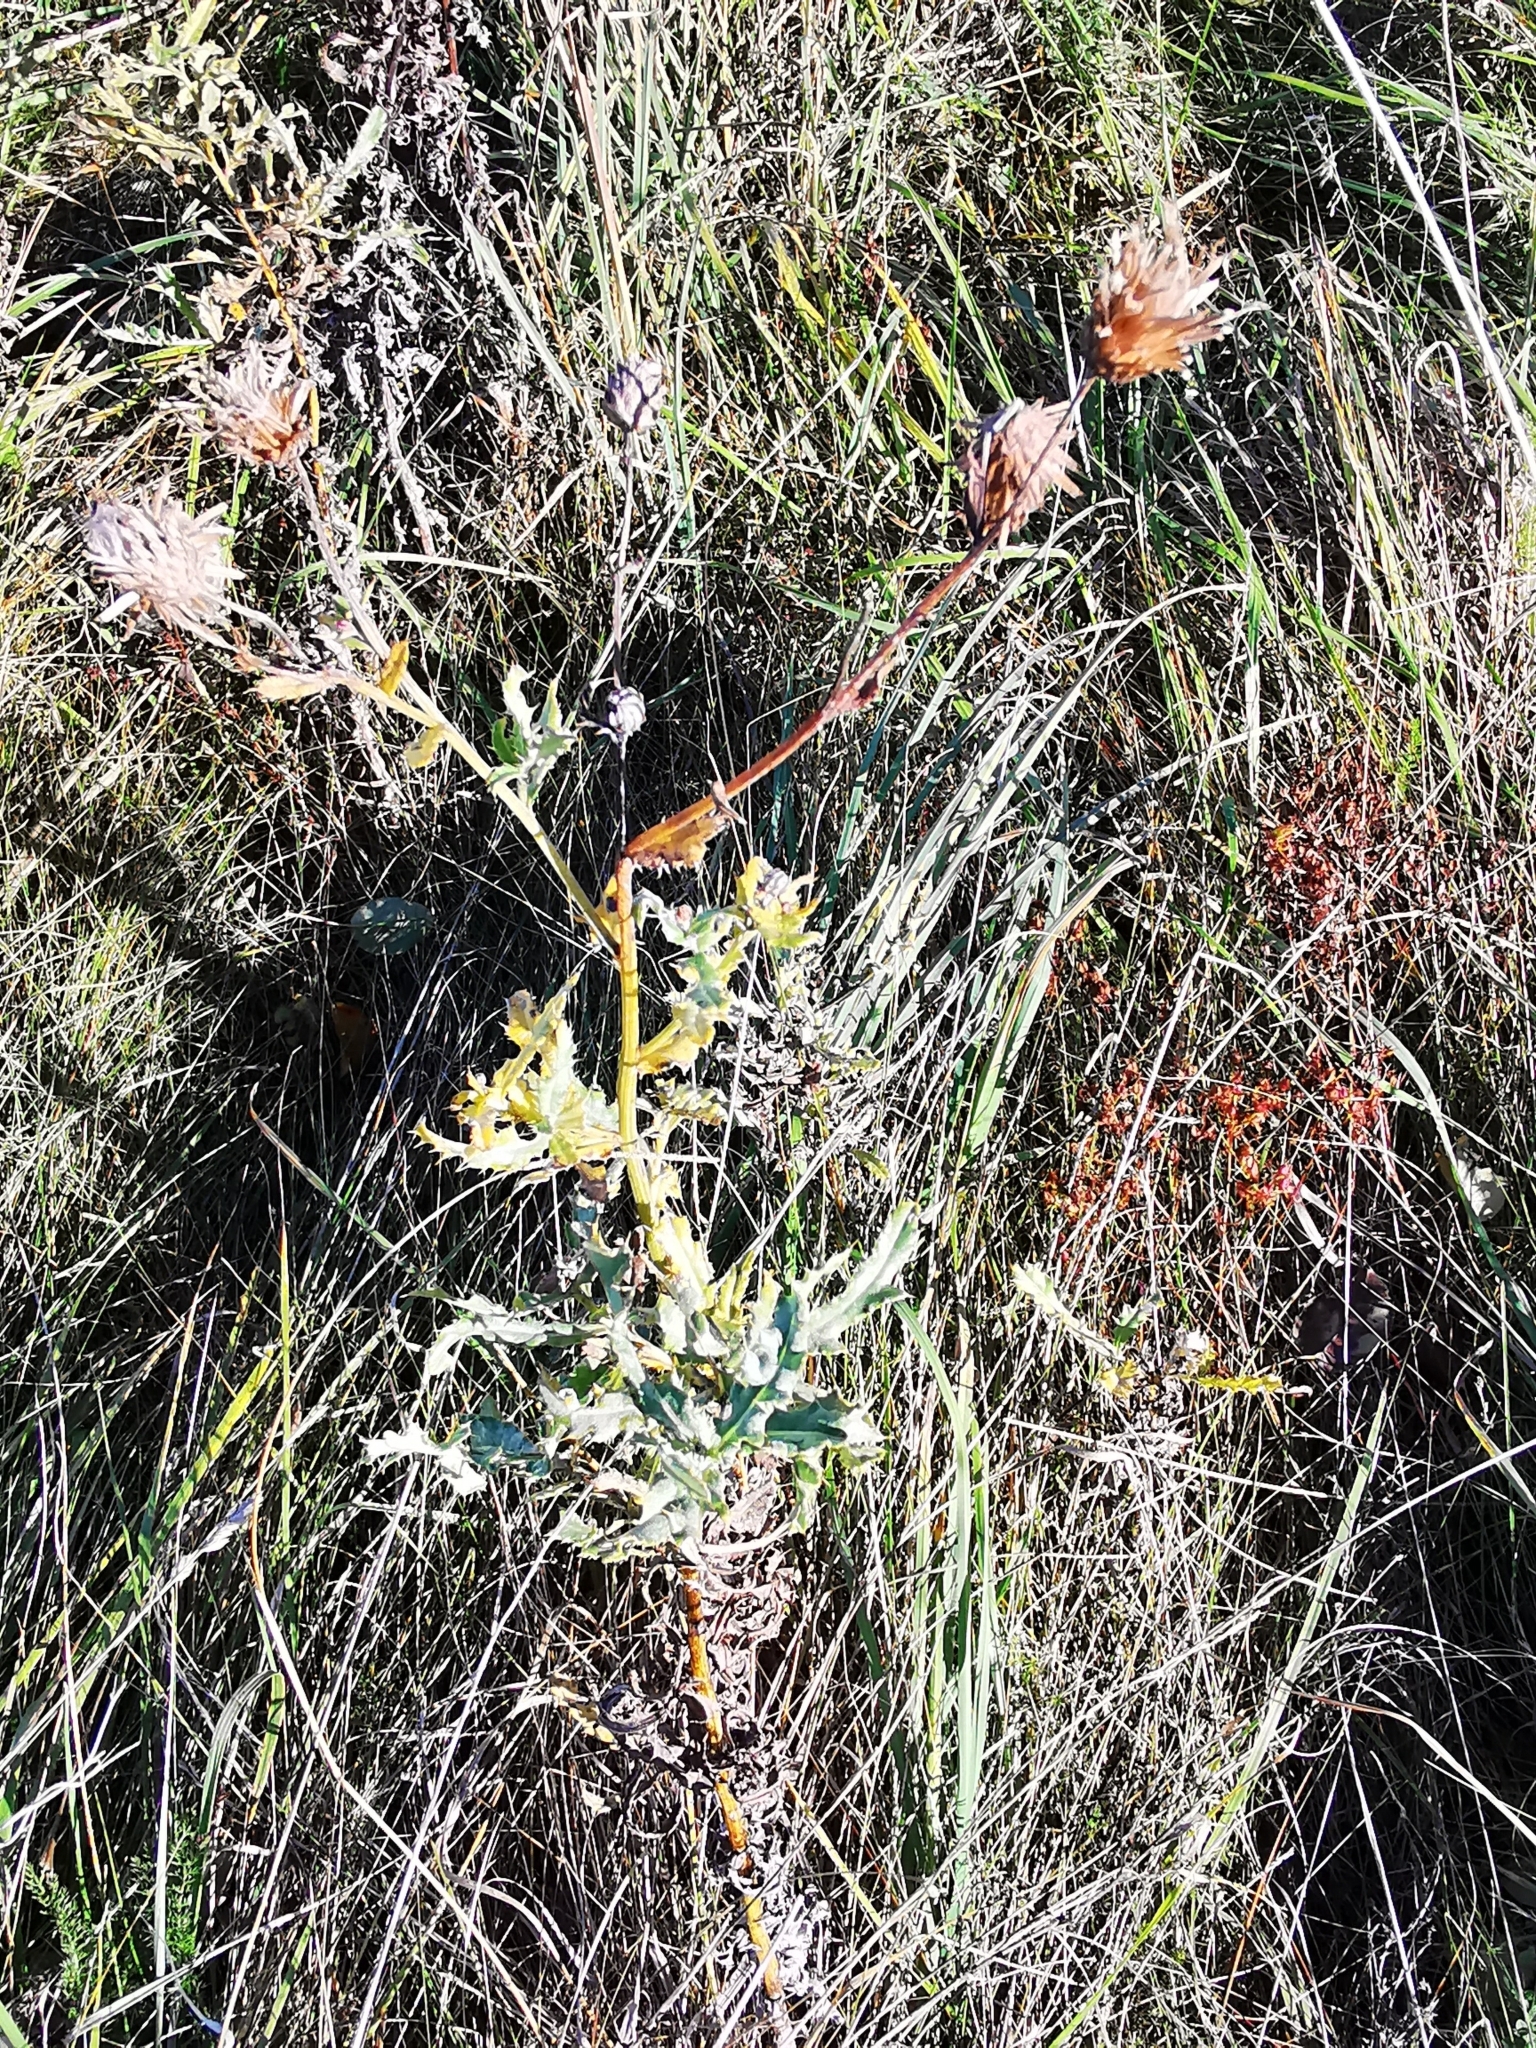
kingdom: Plantae
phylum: Tracheophyta
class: Magnoliopsida
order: Asterales
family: Asteraceae
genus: Cirsium
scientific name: Cirsium arvense
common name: Creeping thistle
